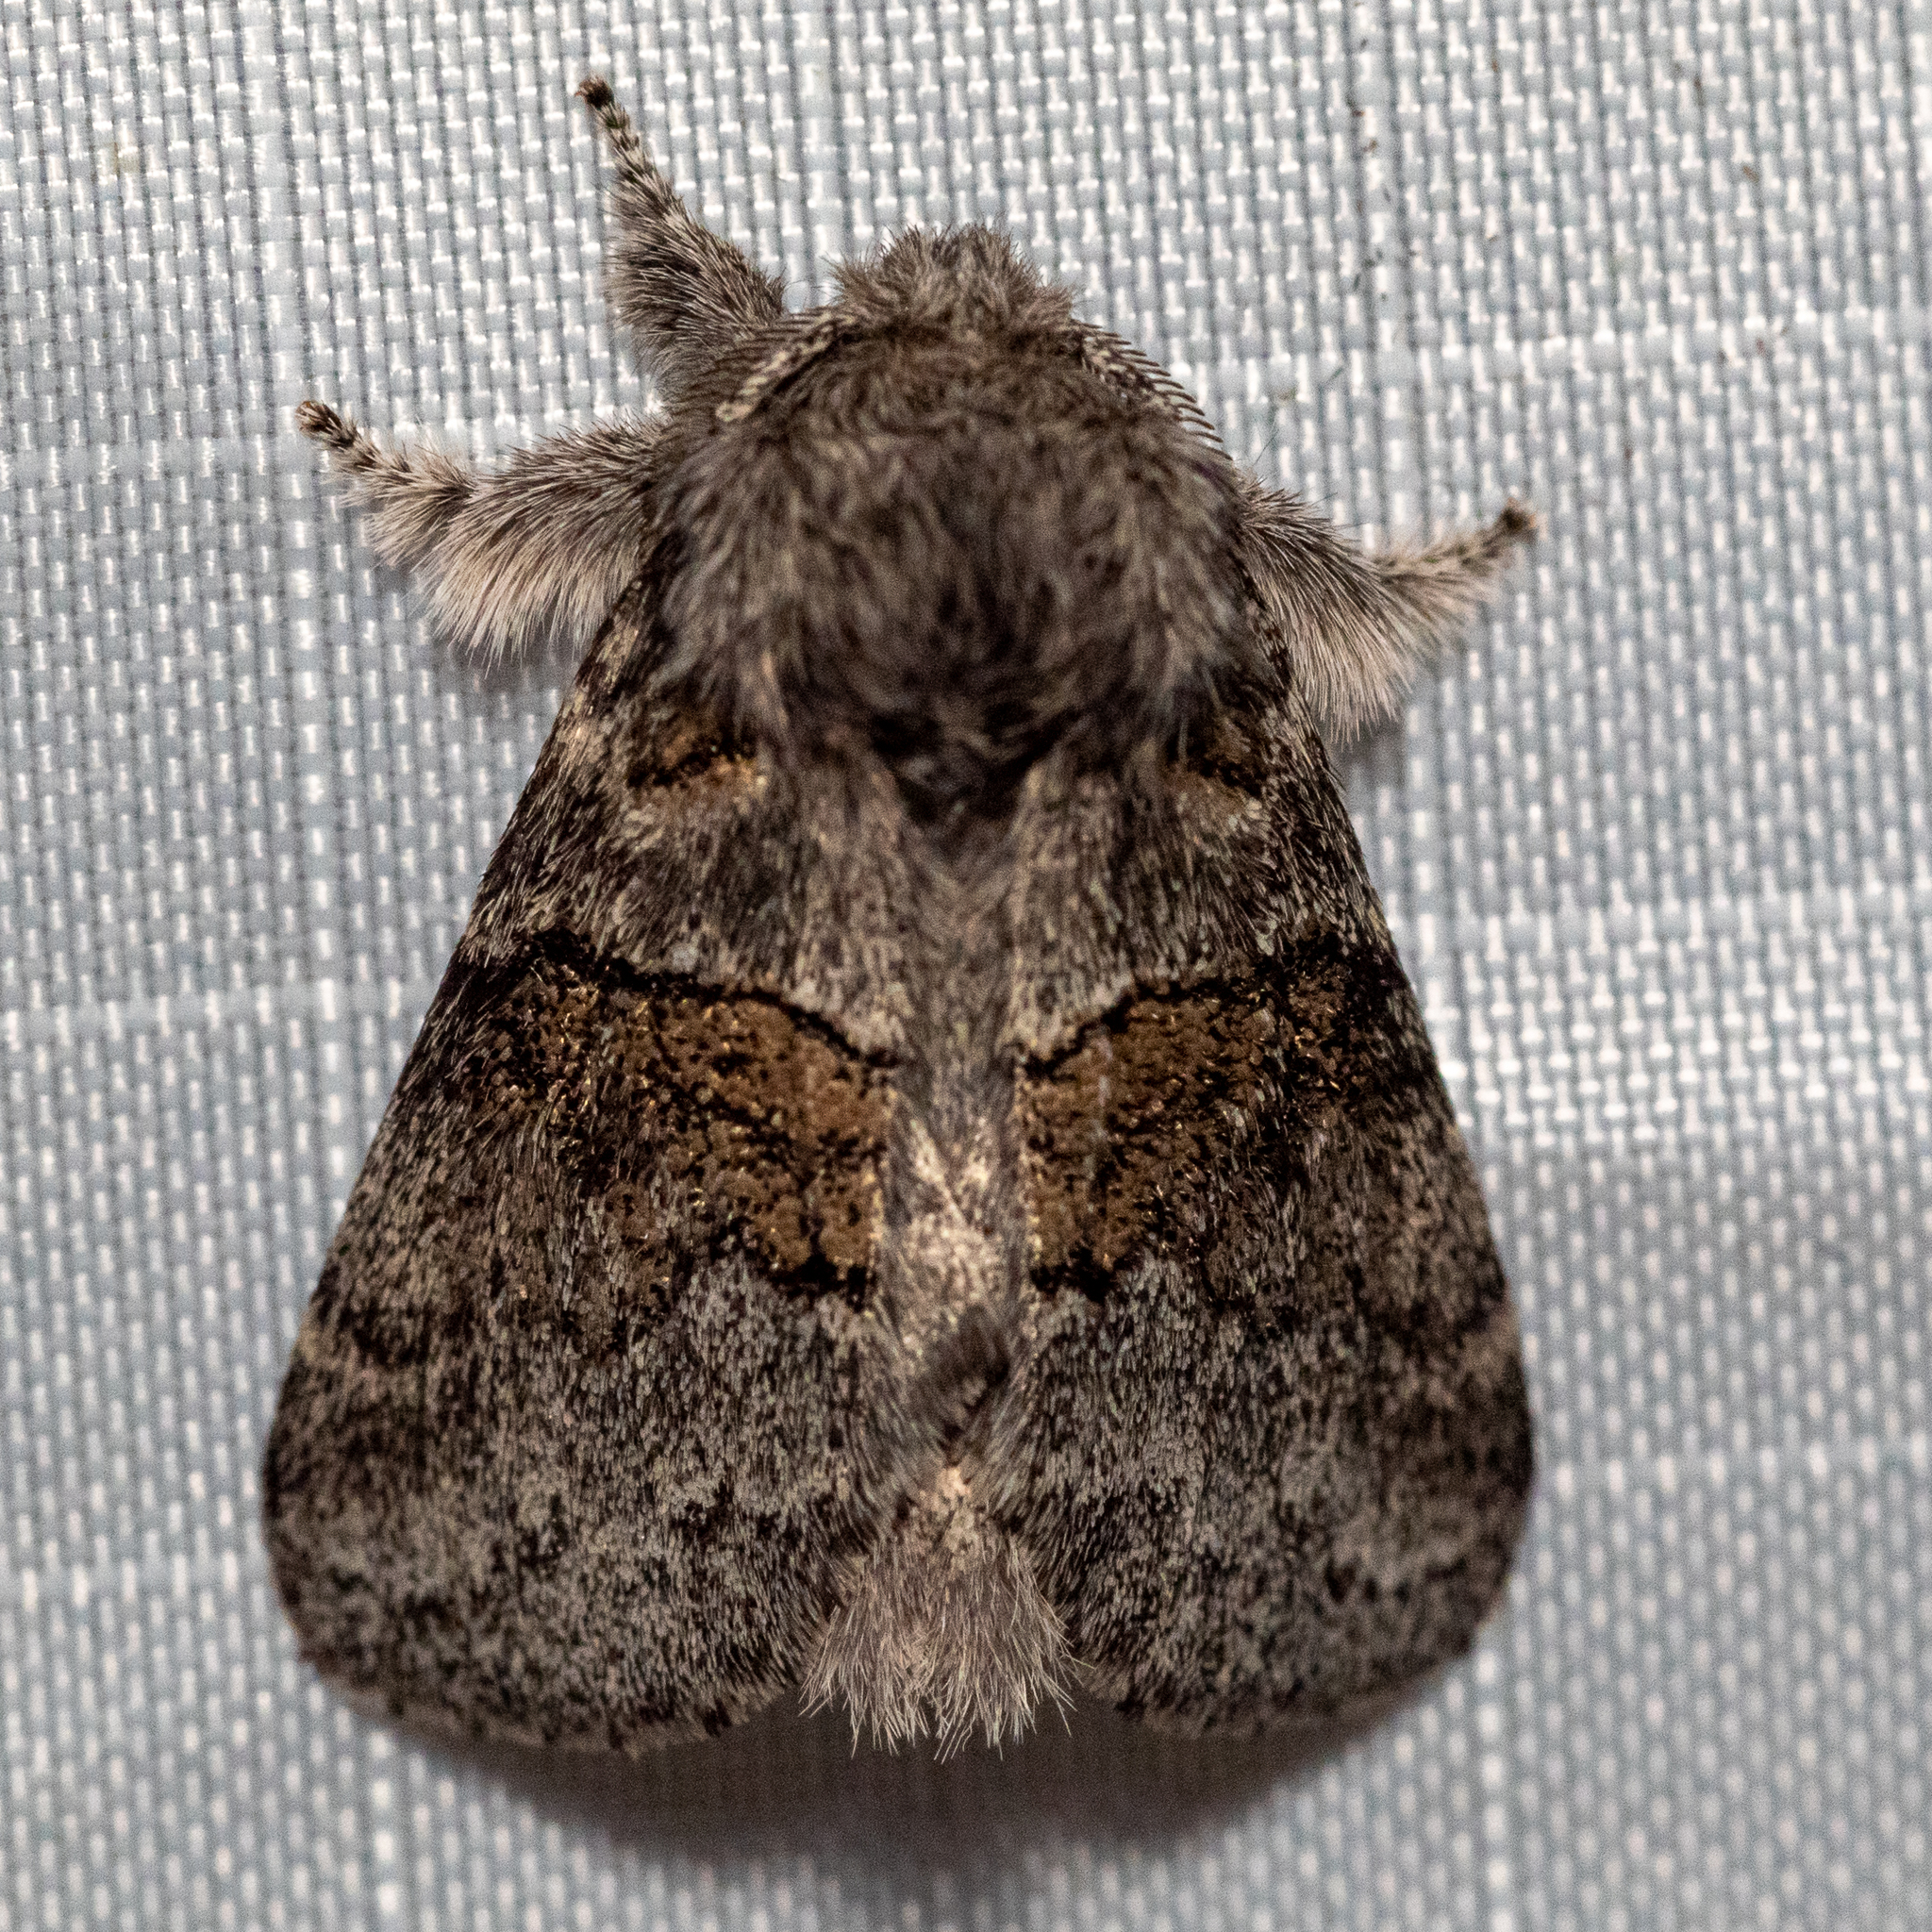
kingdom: Animalia
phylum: Arthropoda
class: Insecta
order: Lepidoptera
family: Notodontidae
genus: Gluphisia
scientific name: Gluphisia septentrionis
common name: Common gluphisia
